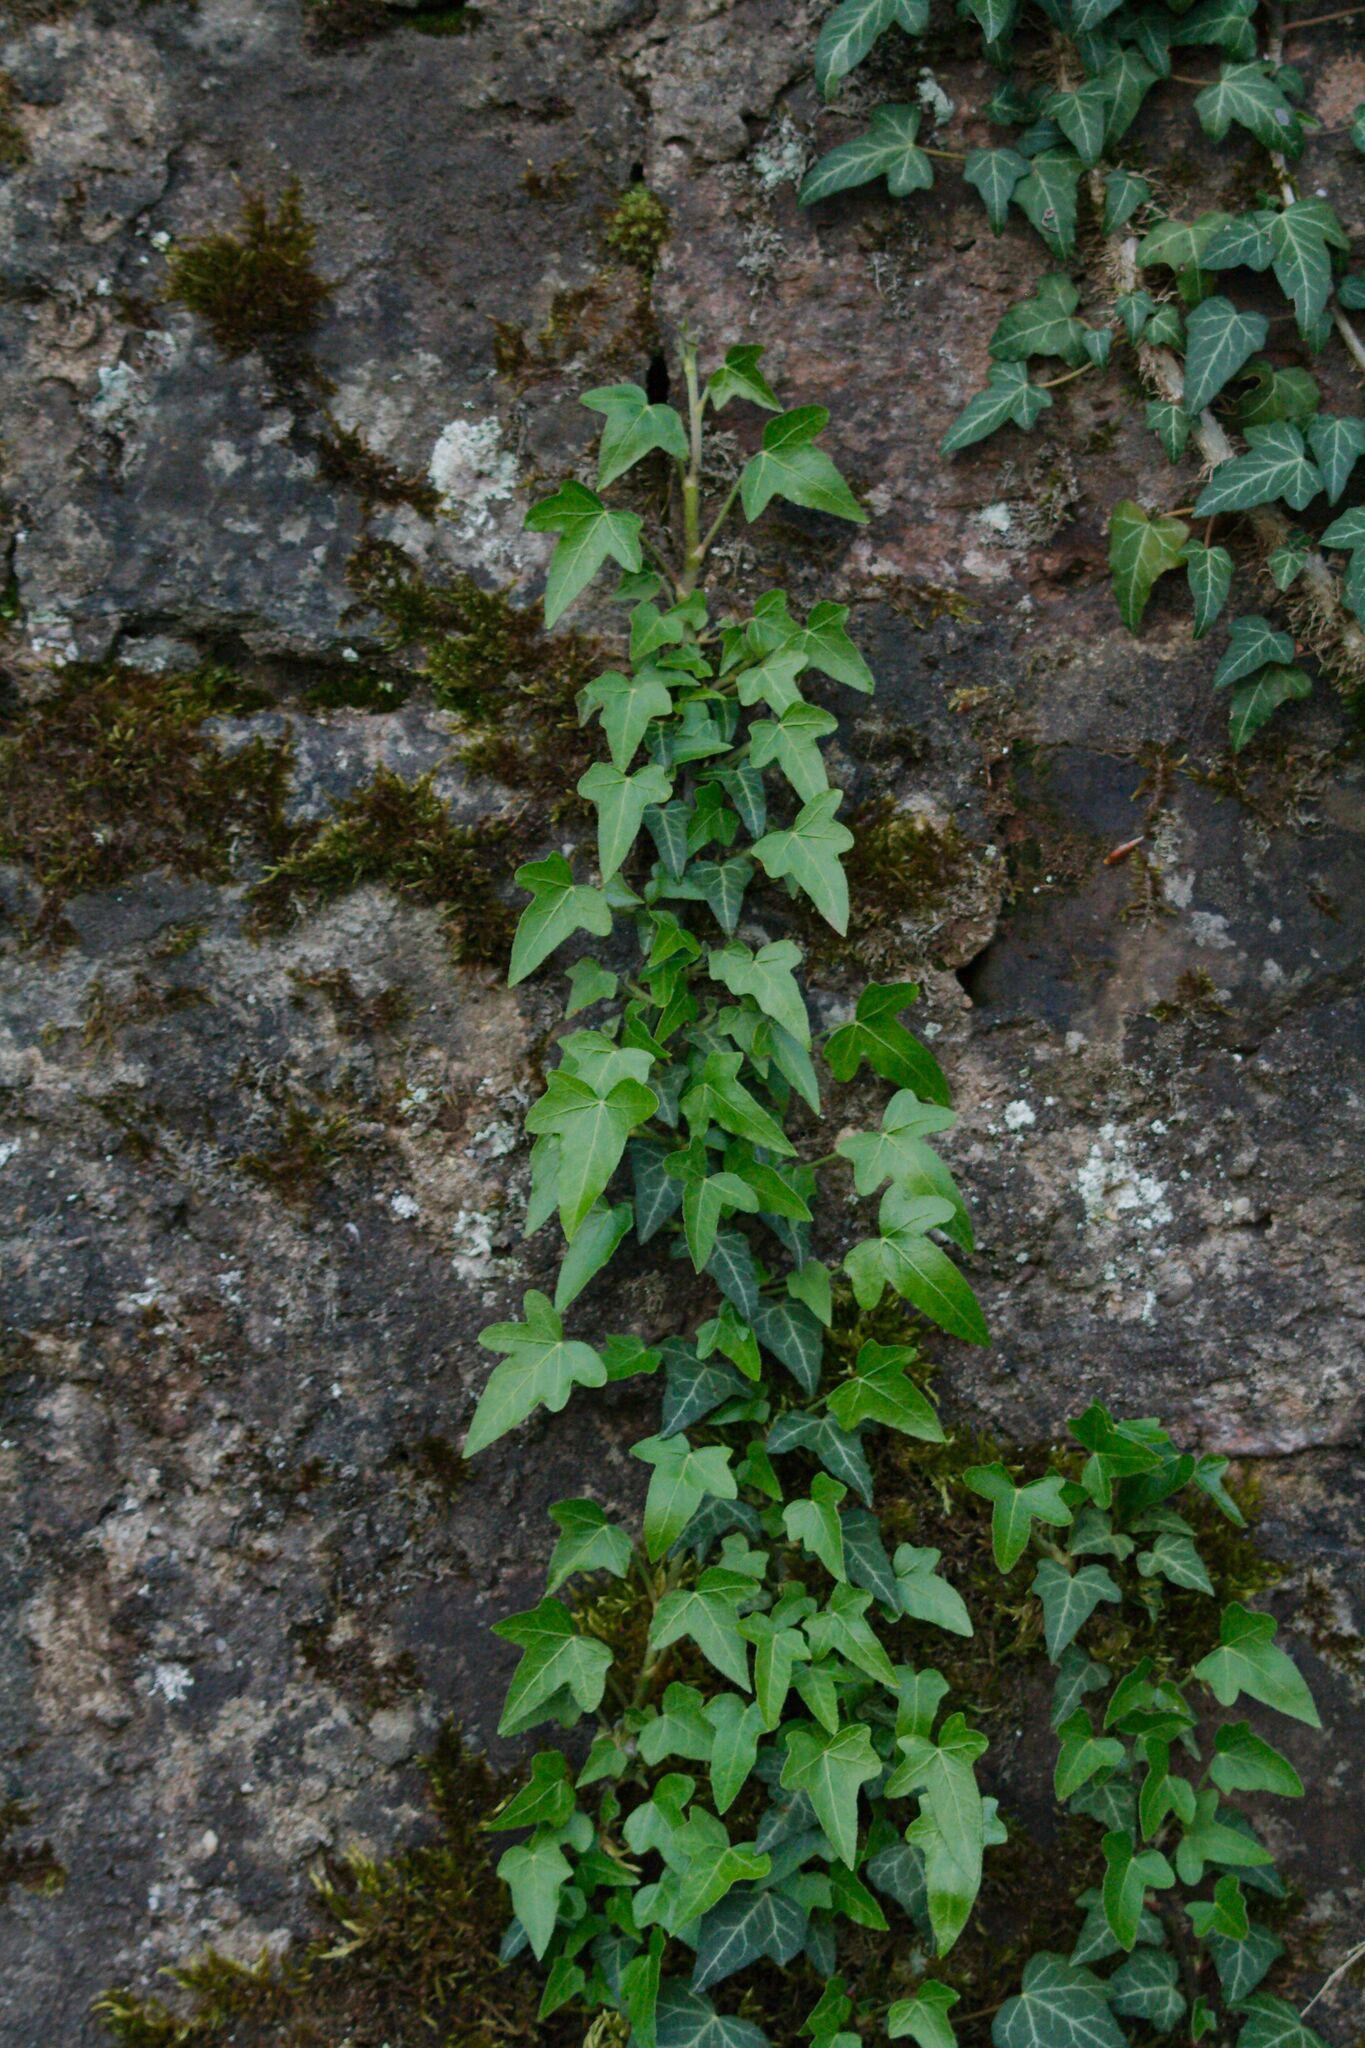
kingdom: Plantae
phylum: Tracheophyta
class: Magnoliopsida
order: Apiales
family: Araliaceae
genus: Hedera
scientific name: Hedera helix
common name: Ivy
